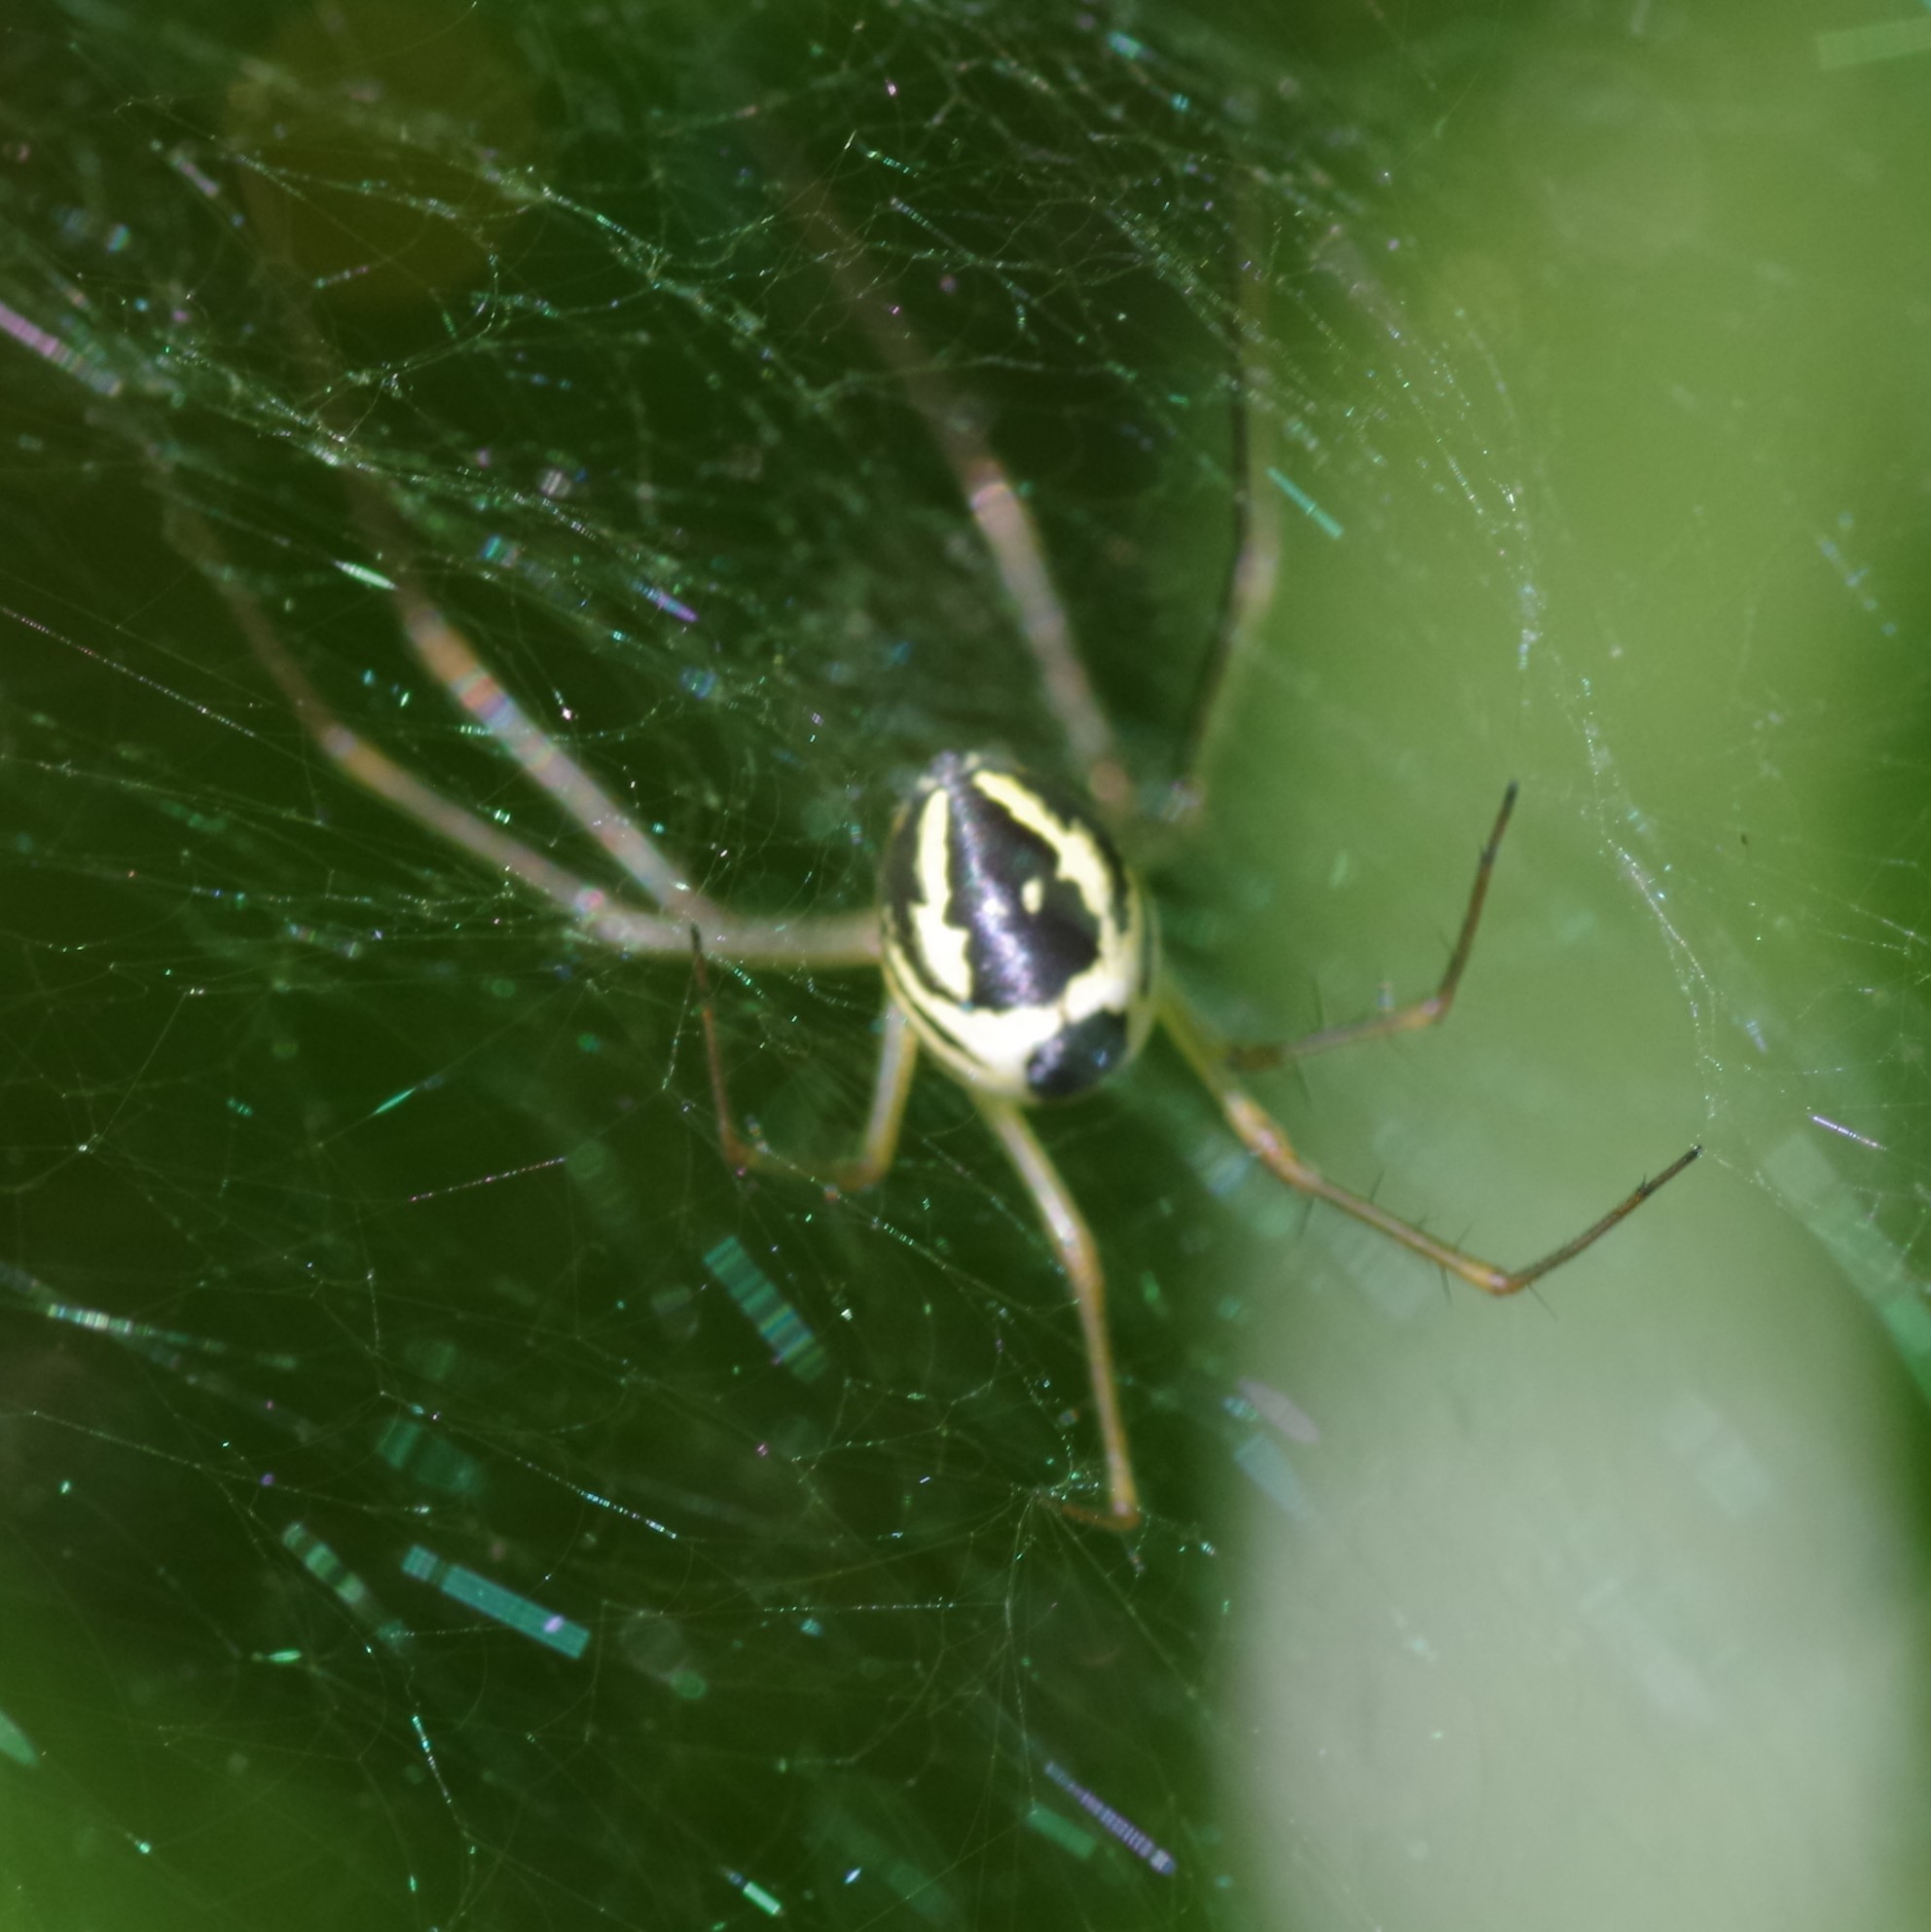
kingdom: Animalia
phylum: Arthropoda
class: Arachnida
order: Araneae
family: Linyphiidae
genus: Neriene
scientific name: Neriene radiata
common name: Filmy dome spider
